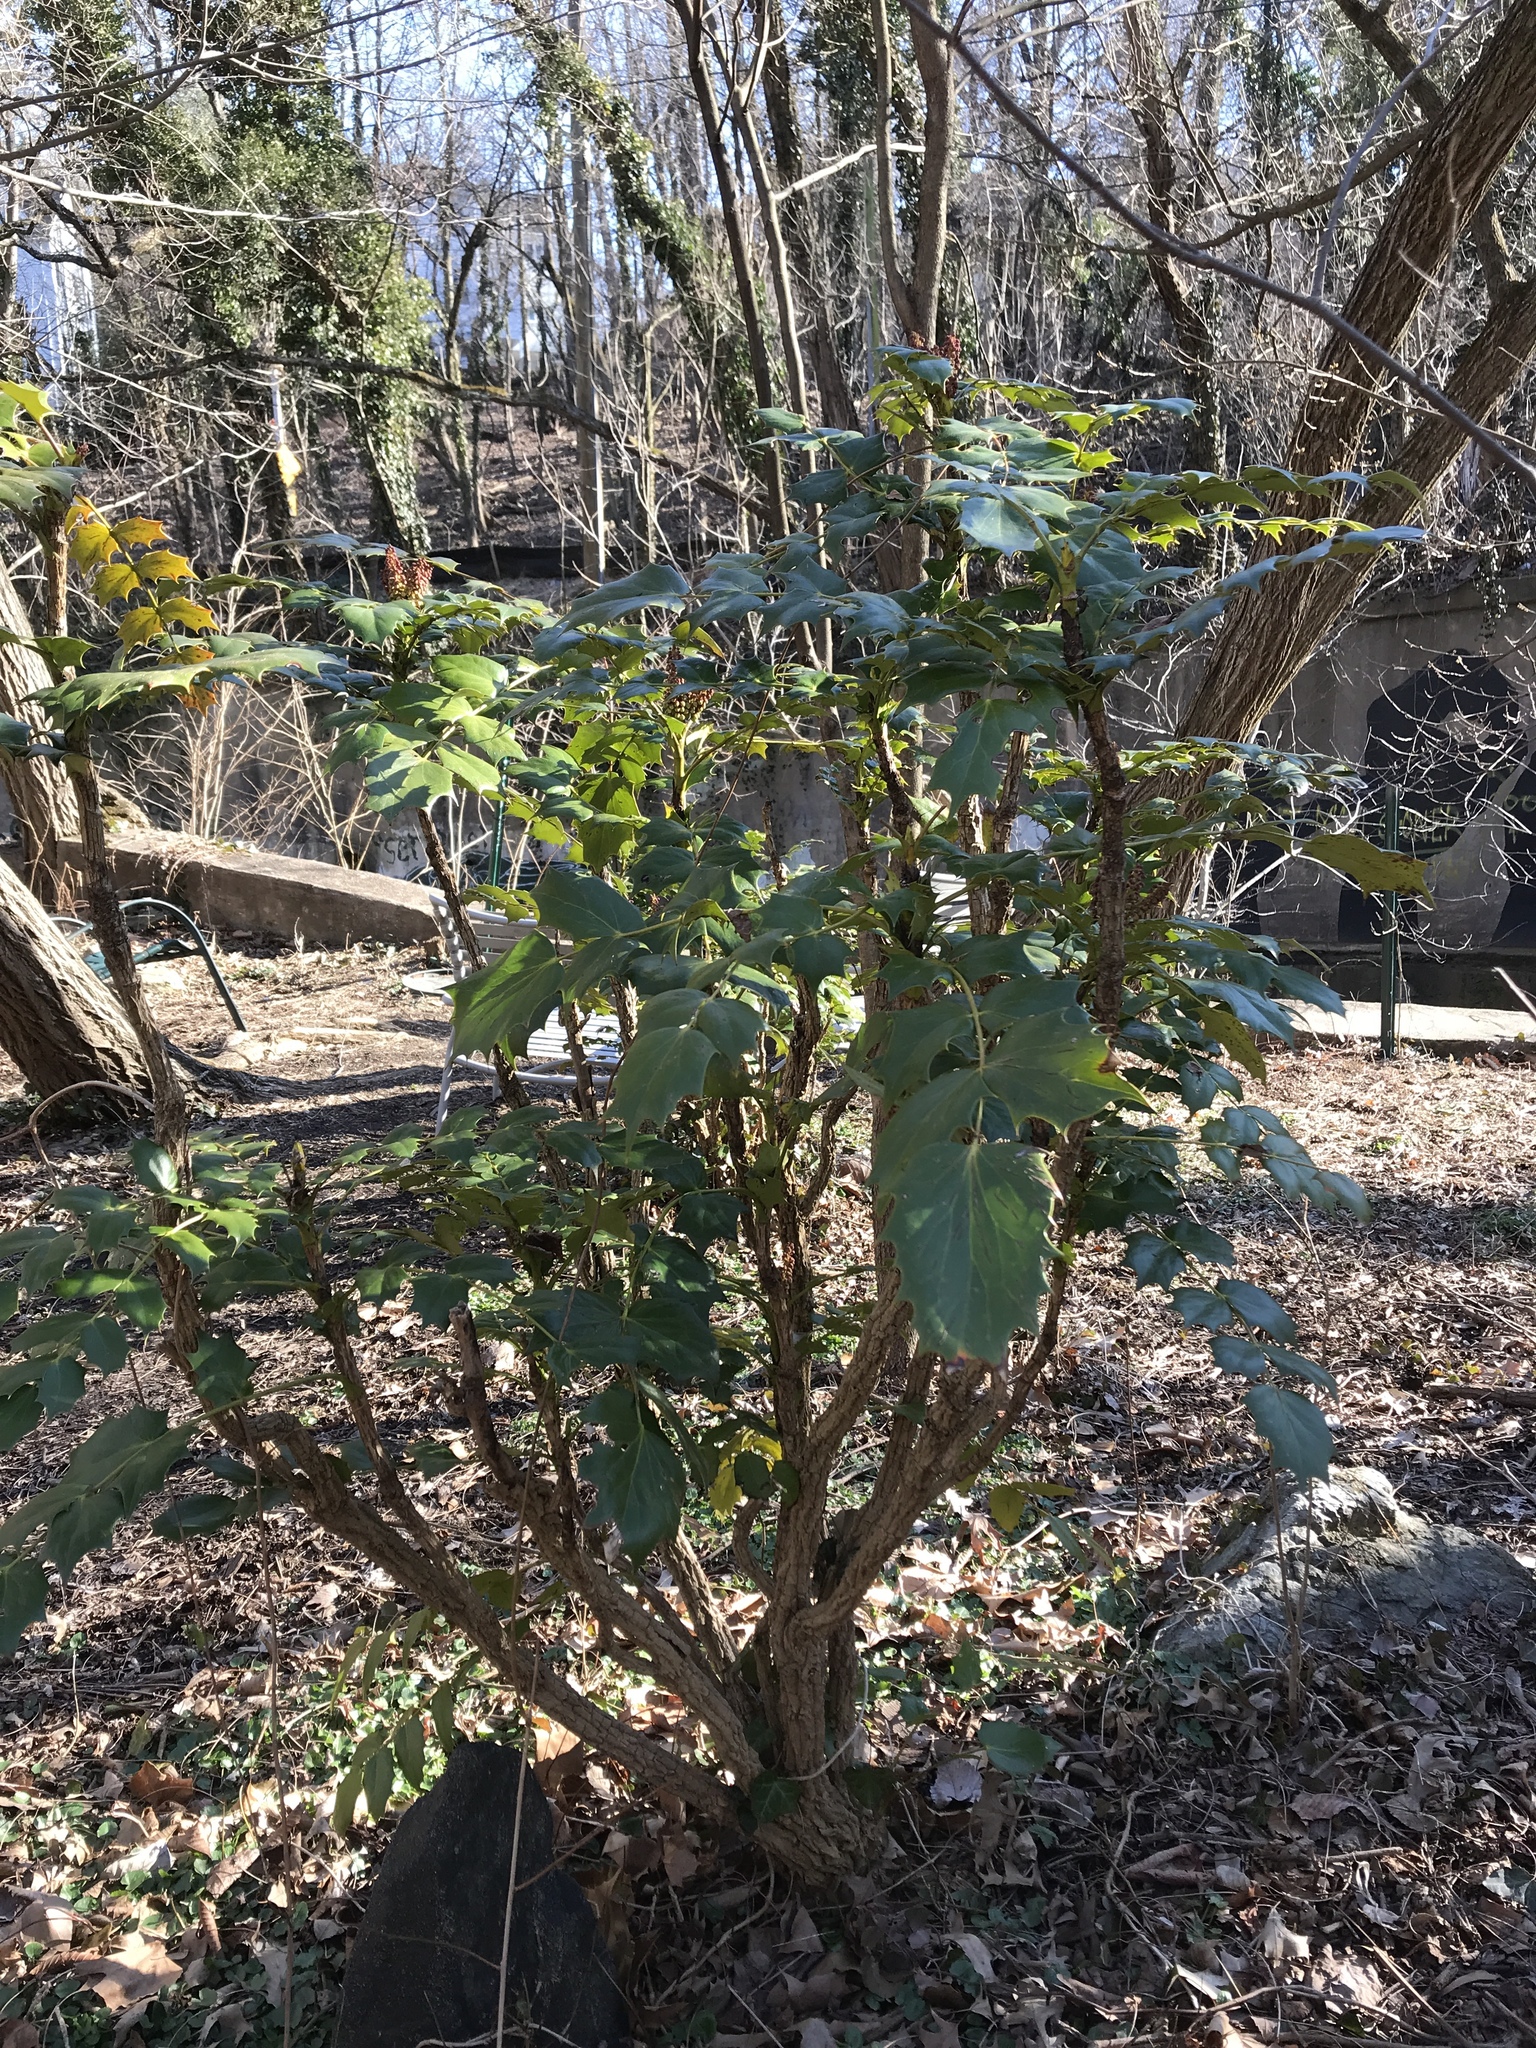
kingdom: Plantae
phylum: Tracheophyta
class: Magnoliopsida
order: Ranunculales
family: Berberidaceae
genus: Mahonia
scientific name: Mahonia bealei
